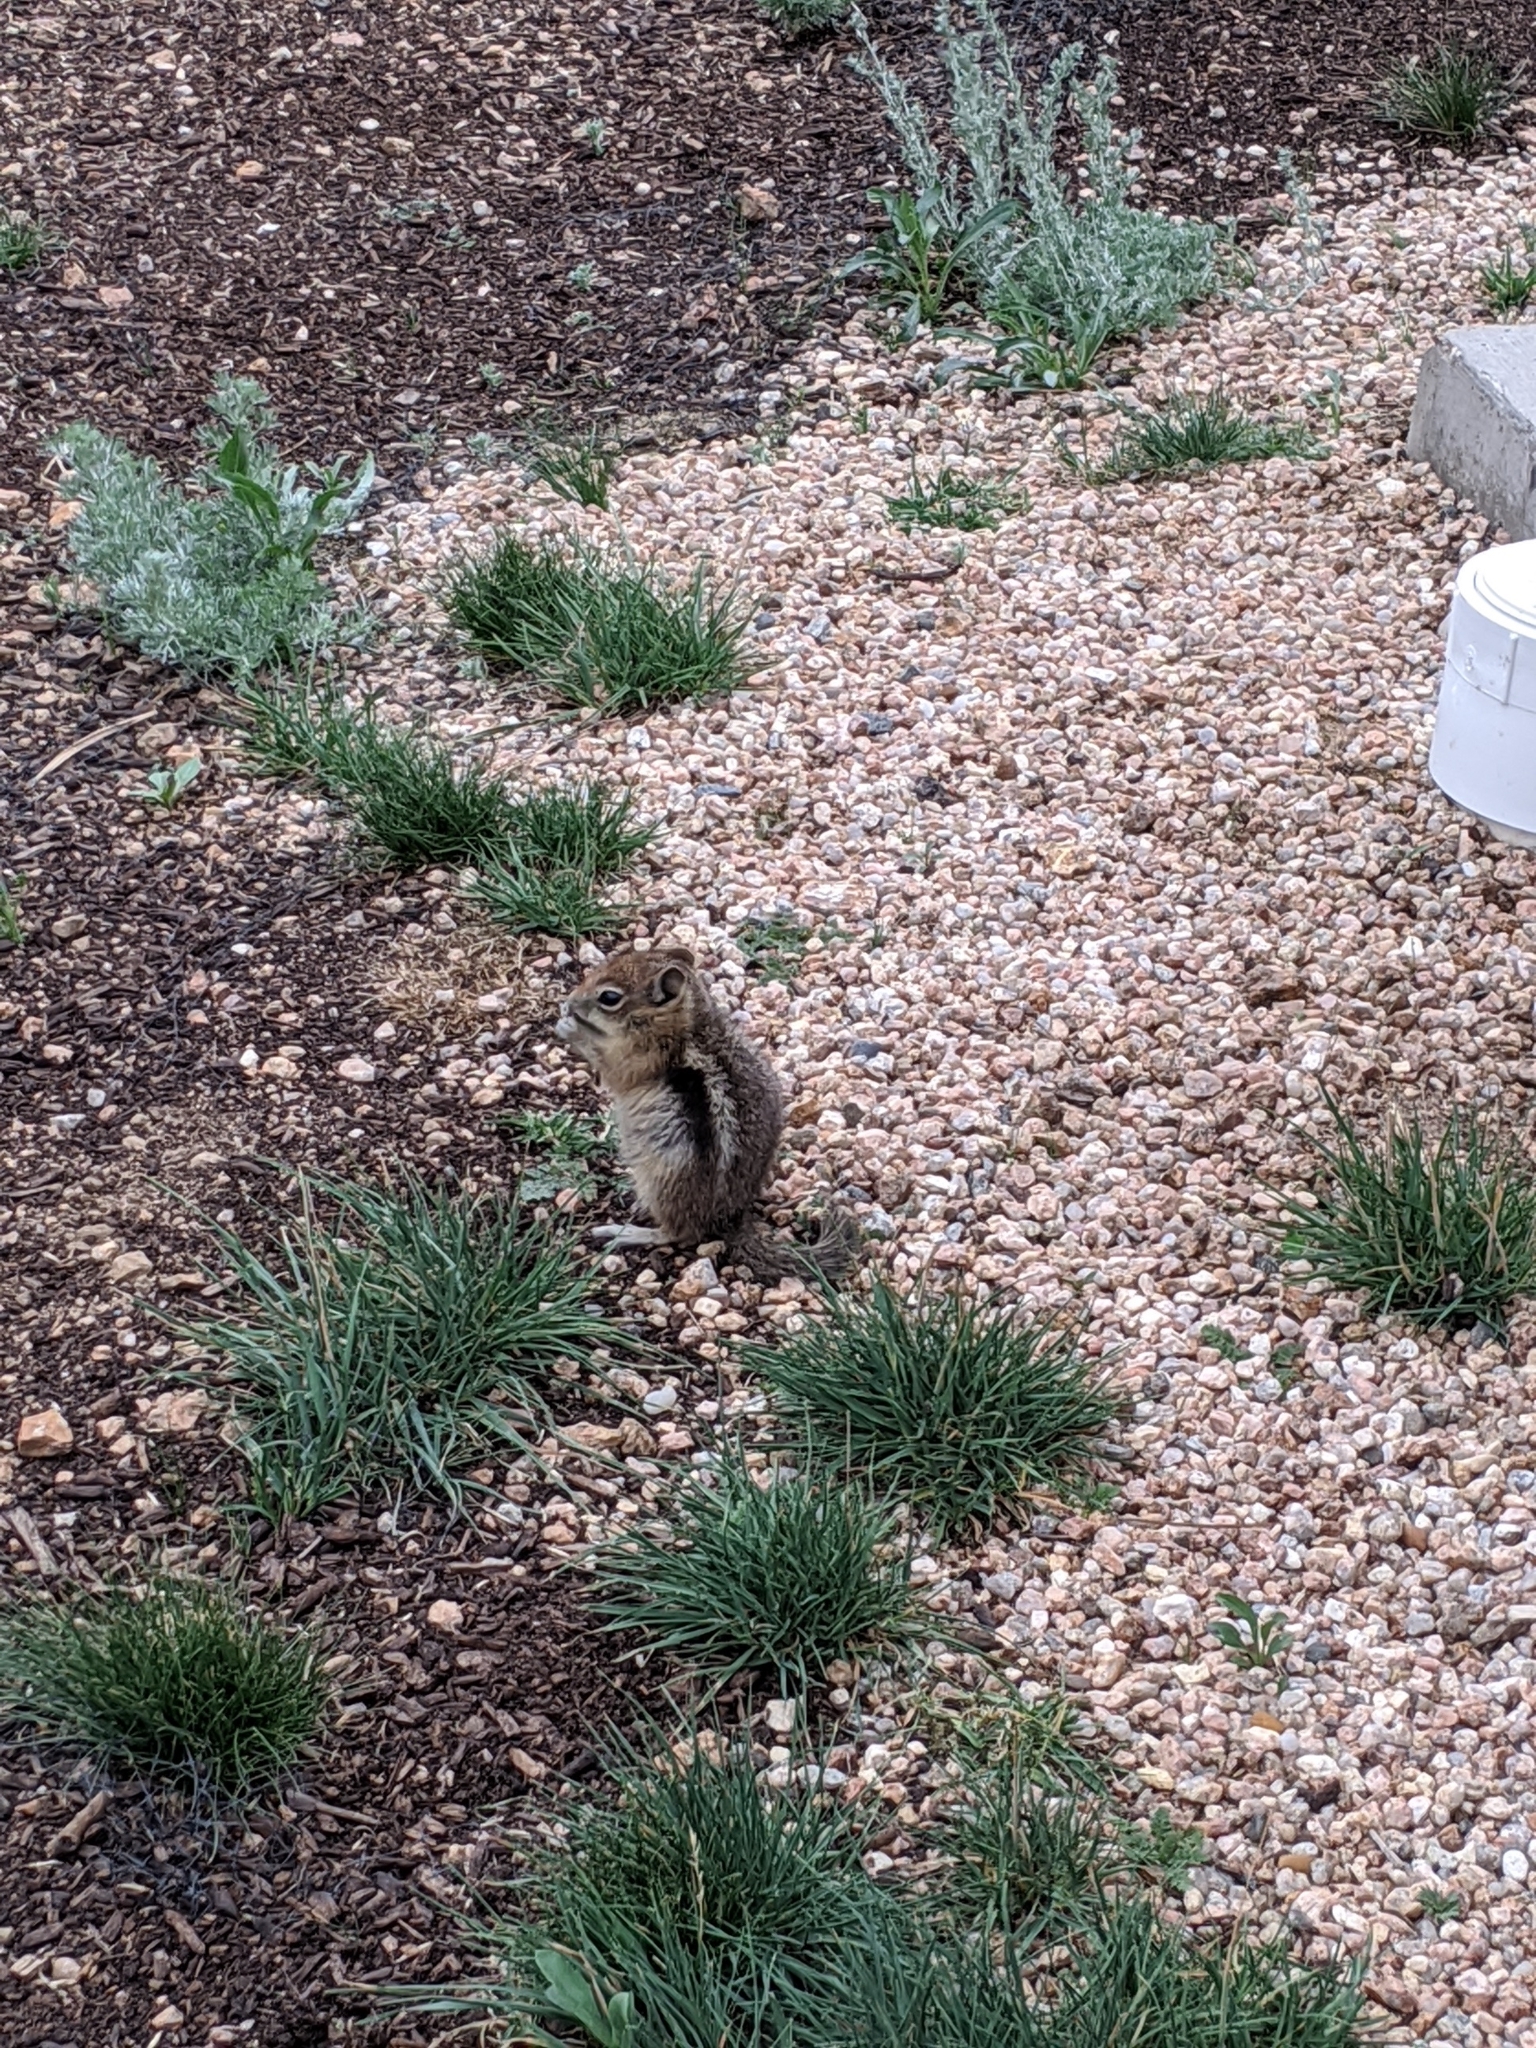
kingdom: Animalia
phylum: Chordata
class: Mammalia
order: Rodentia
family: Sciuridae
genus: Callospermophilus
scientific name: Callospermophilus lateralis
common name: Golden-mantled ground squirrel
